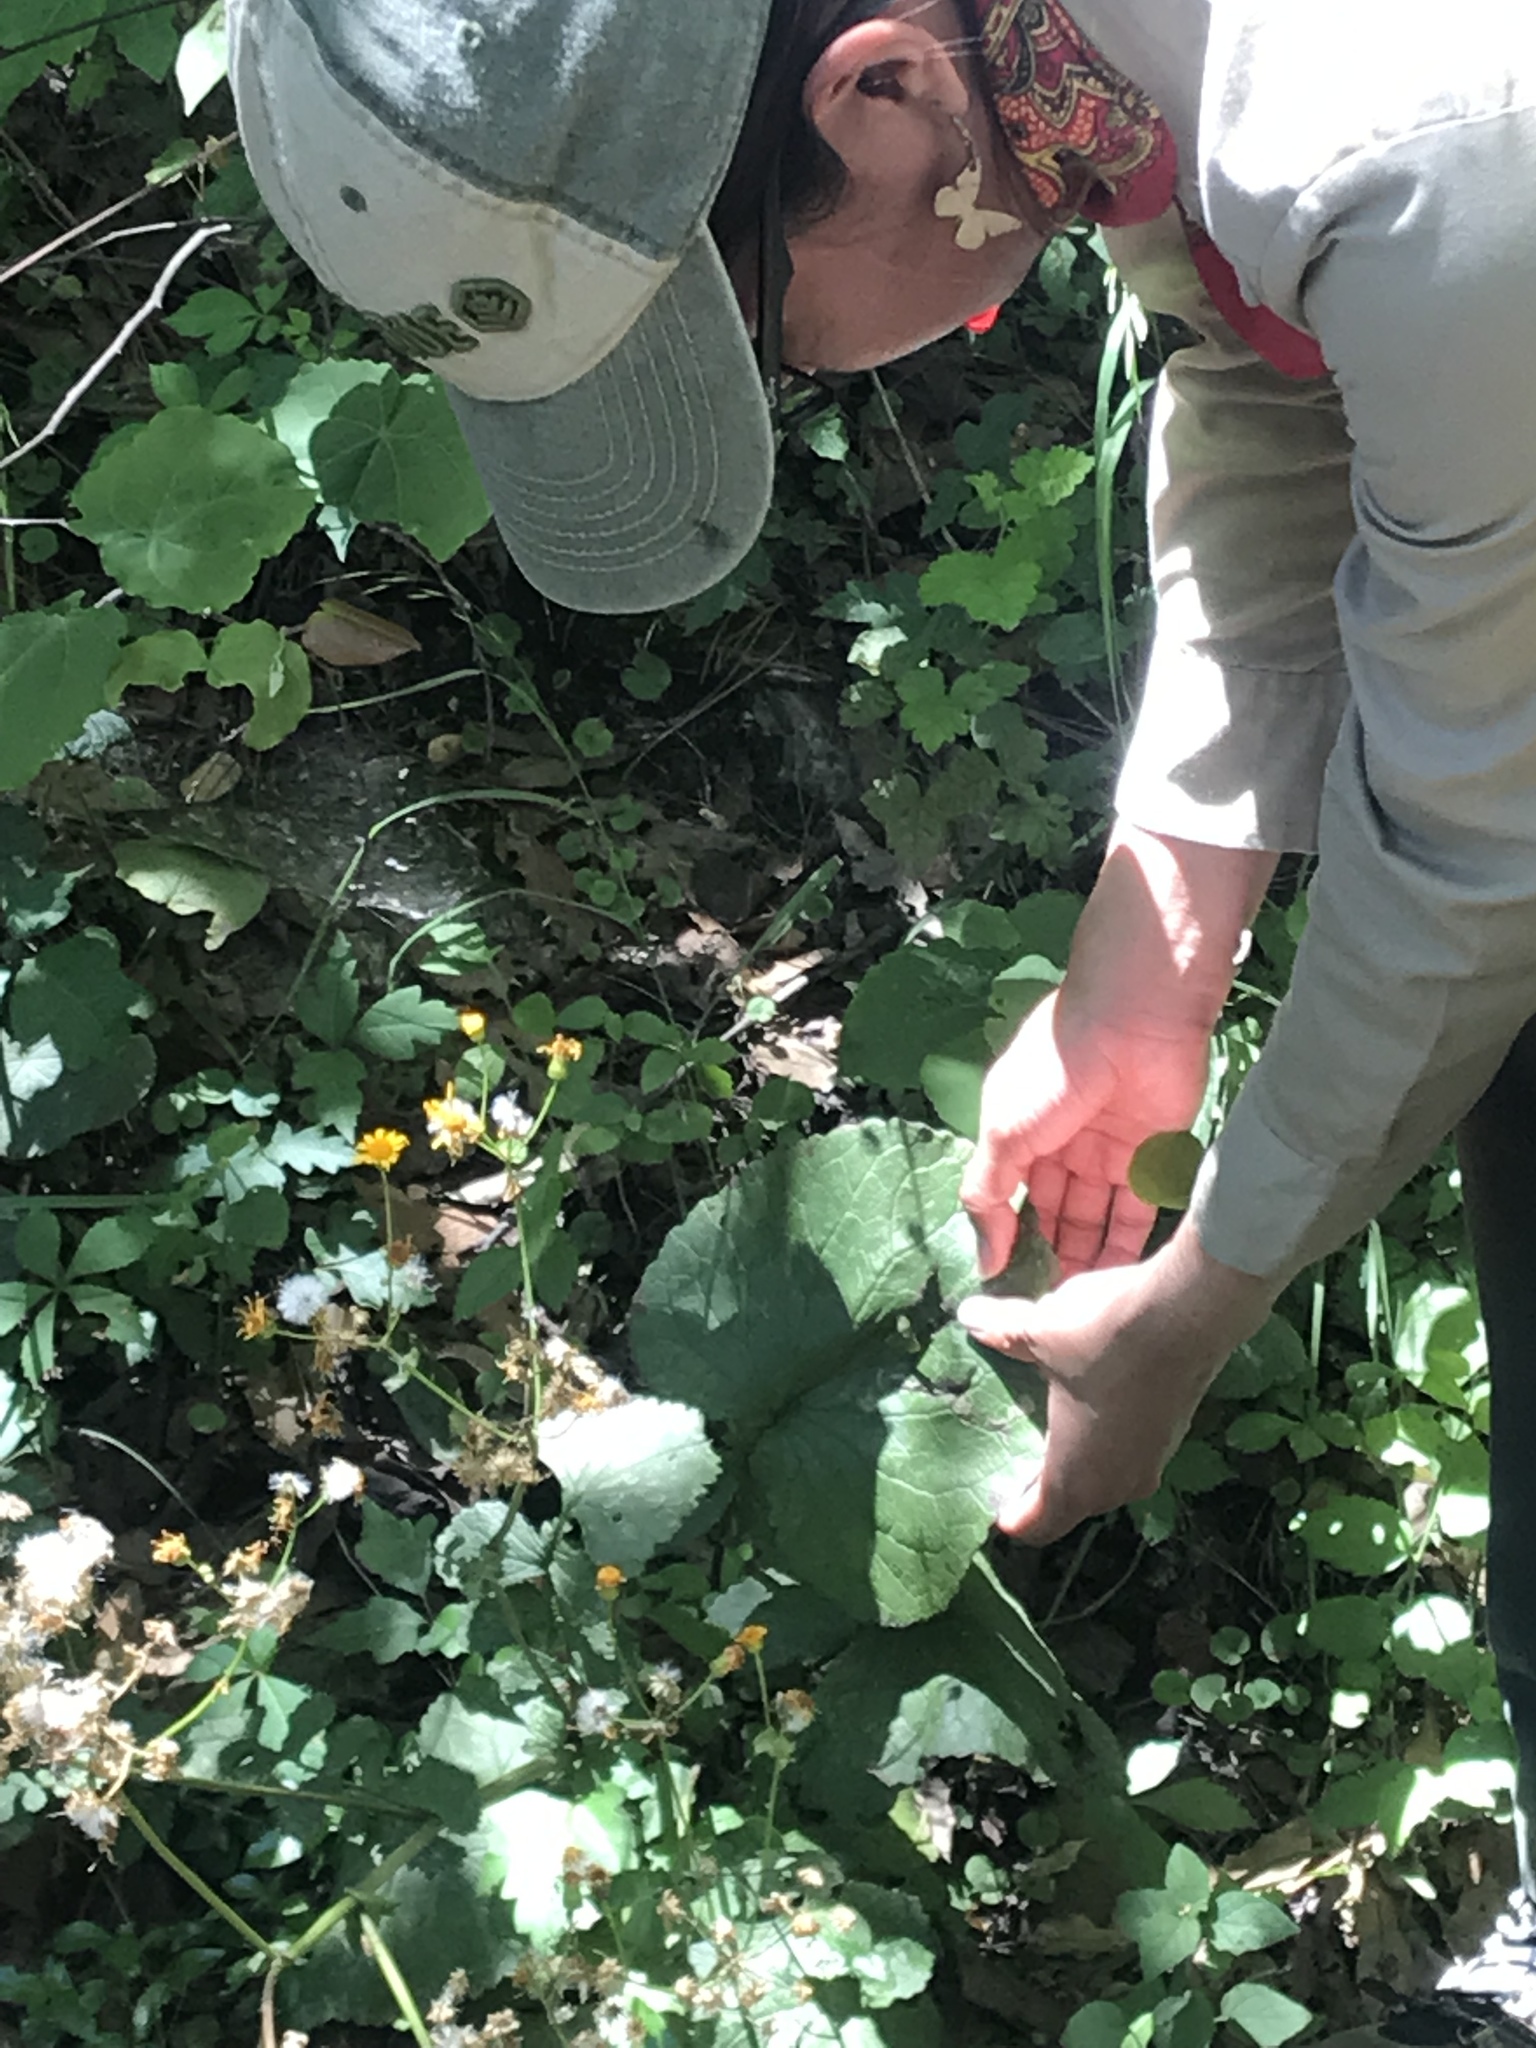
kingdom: Plantae
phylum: Tracheophyta
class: Magnoliopsida
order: Asterales
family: Asteraceae
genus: Packera
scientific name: Packera coahuilensis
